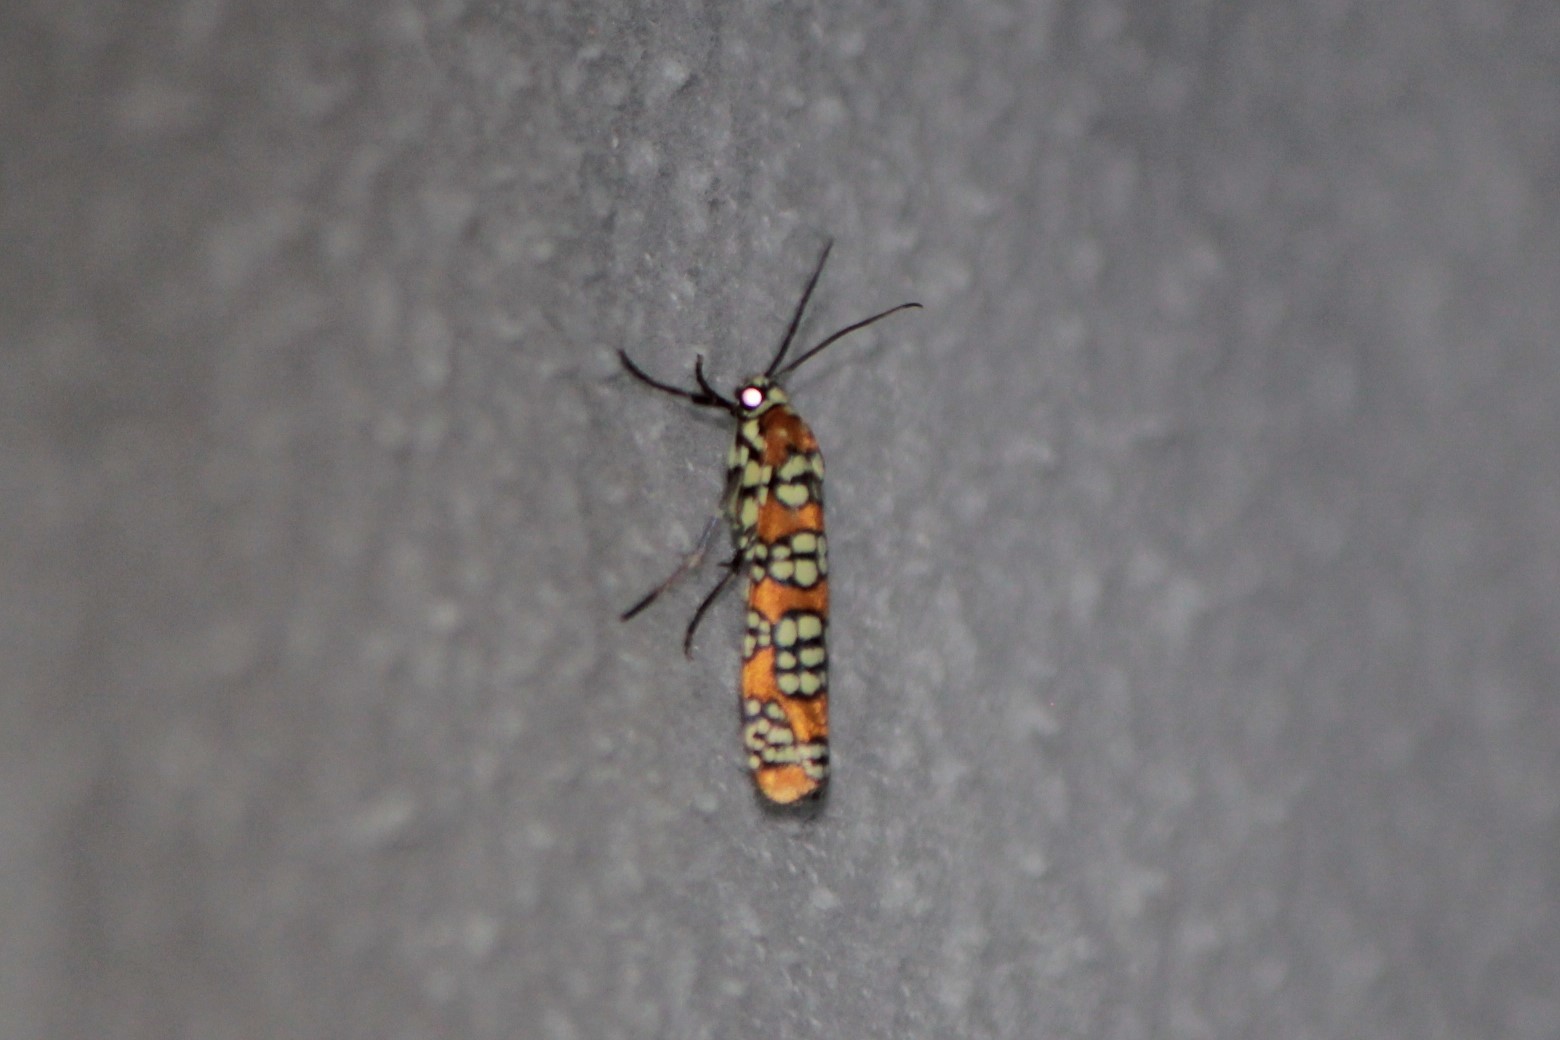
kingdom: Animalia
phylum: Arthropoda
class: Insecta
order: Lepidoptera
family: Attevidae
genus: Atteva
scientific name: Atteva punctella
